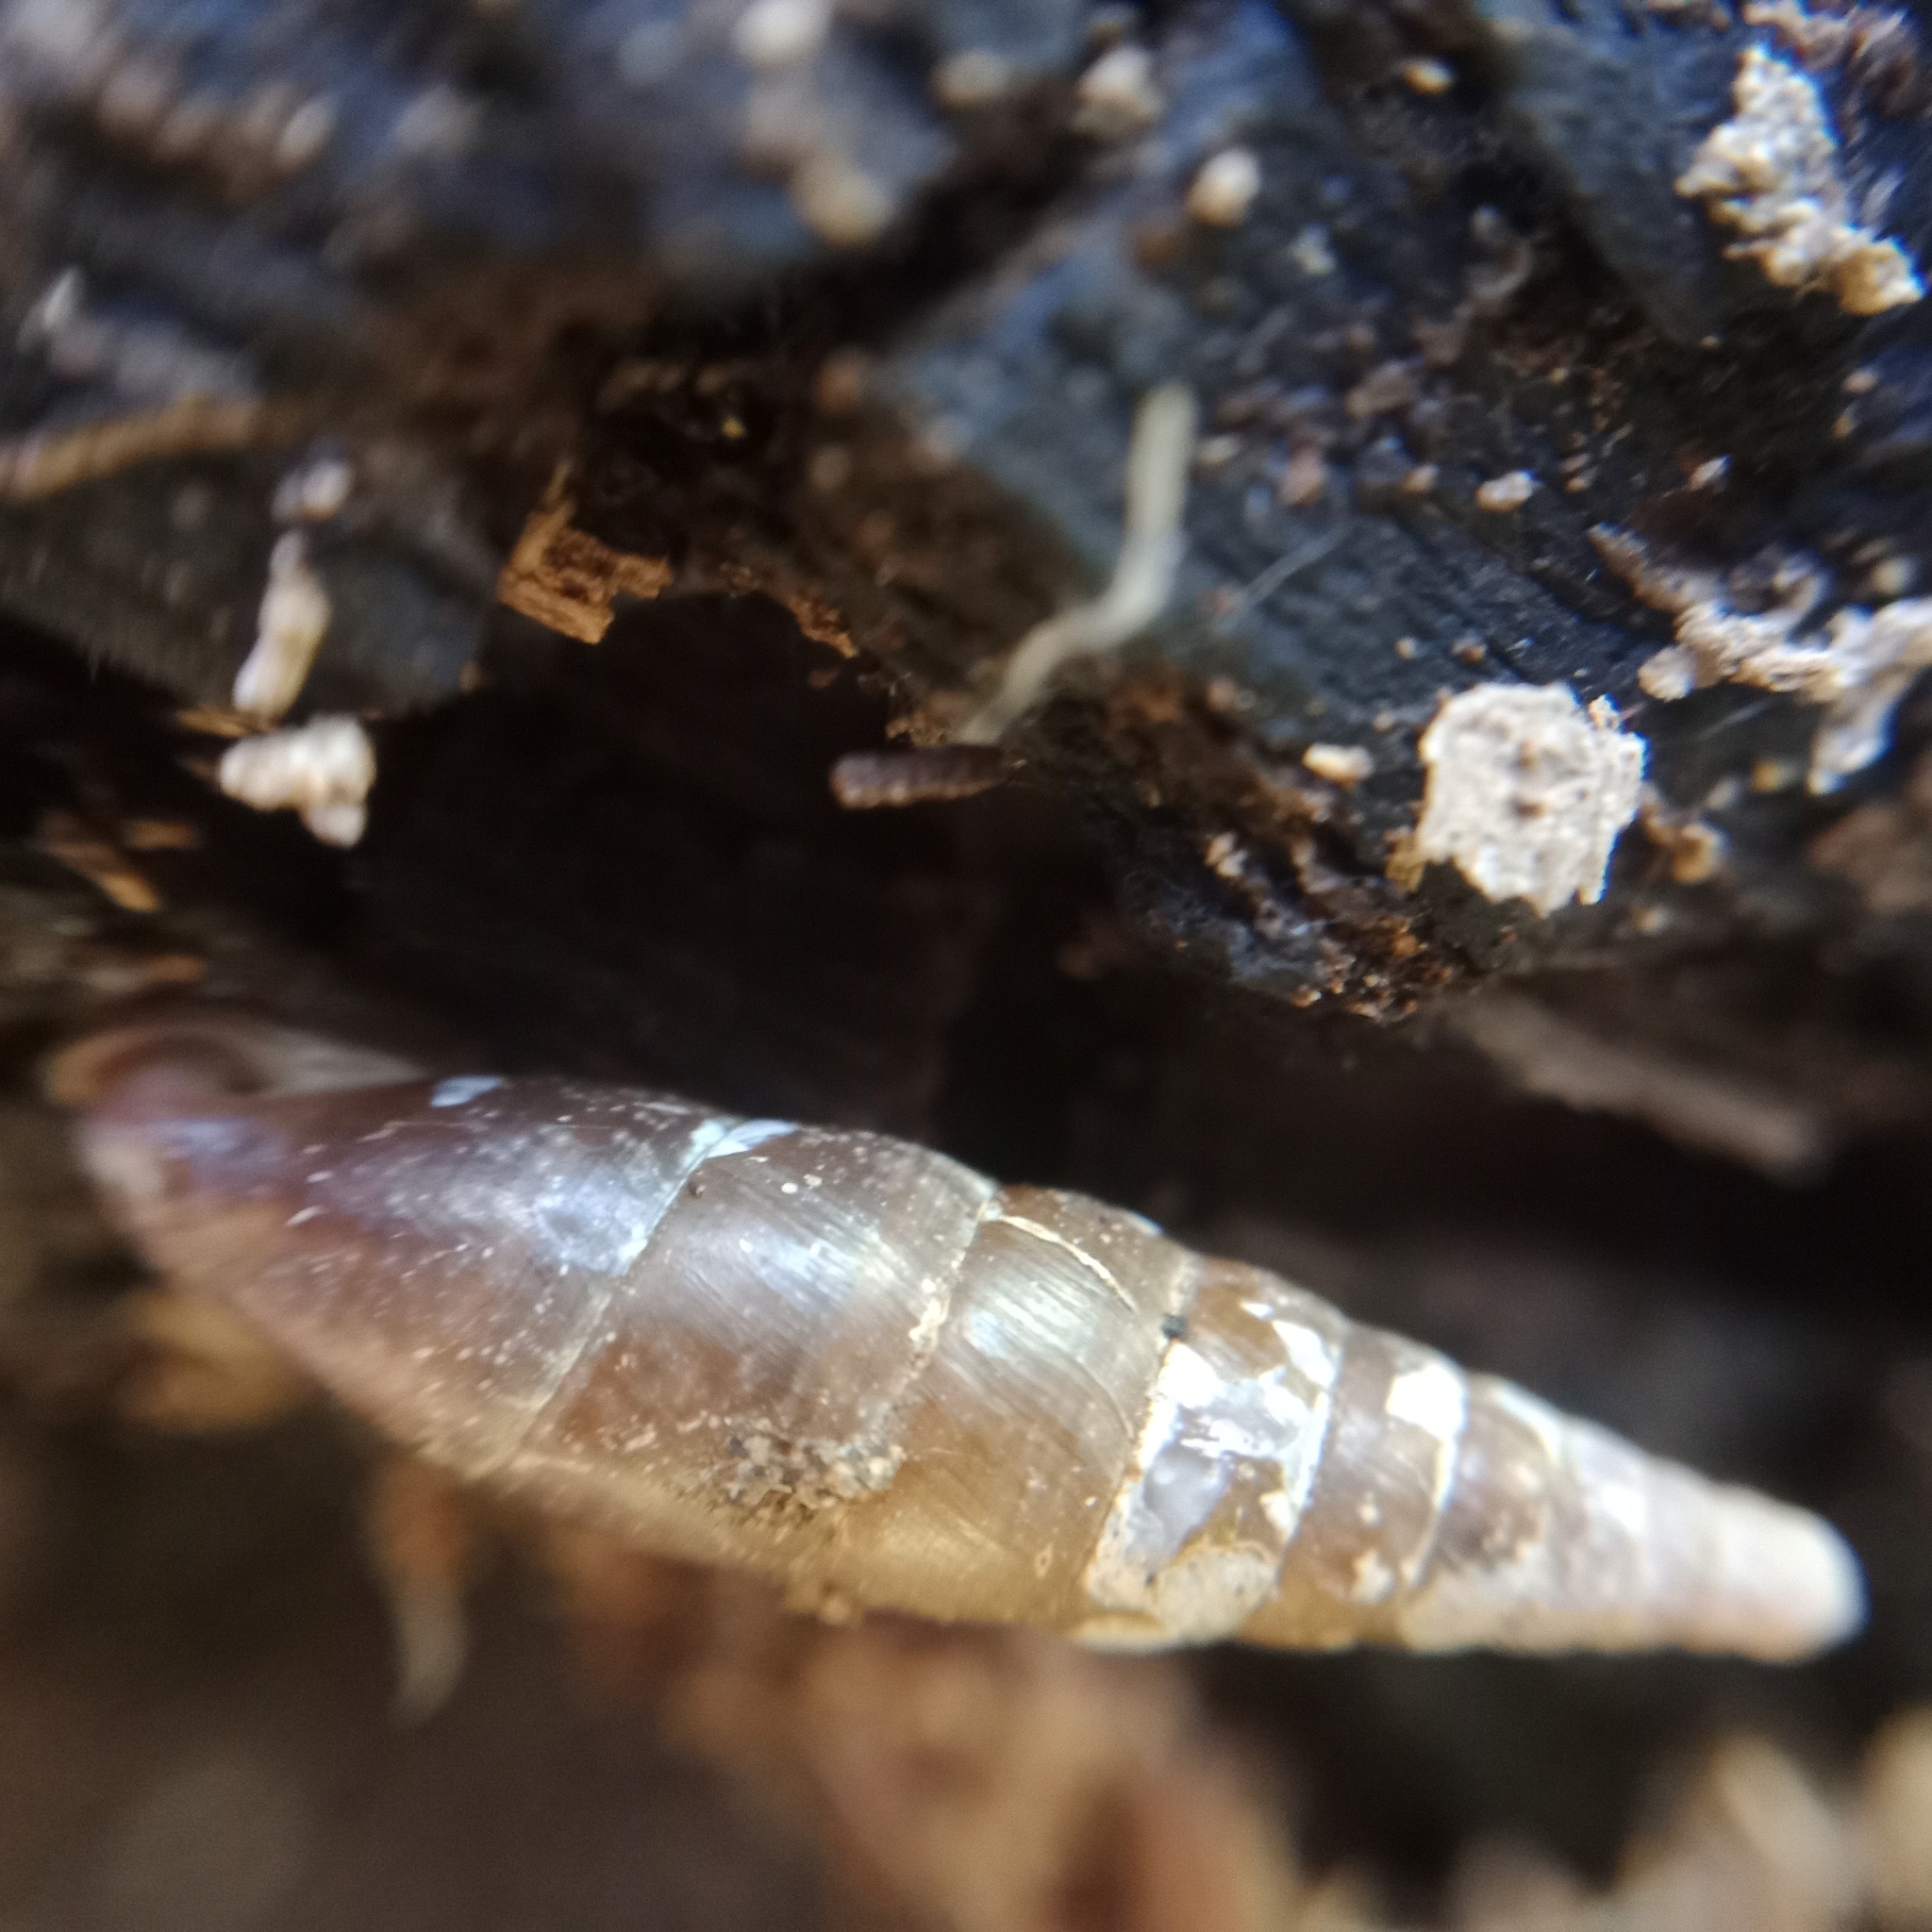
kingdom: Animalia
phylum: Mollusca
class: Gastropoda
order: Stylommatophora
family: Clausiliidae
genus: Cochlodina
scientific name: Cochlodina laminata
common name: Plaited door snail
